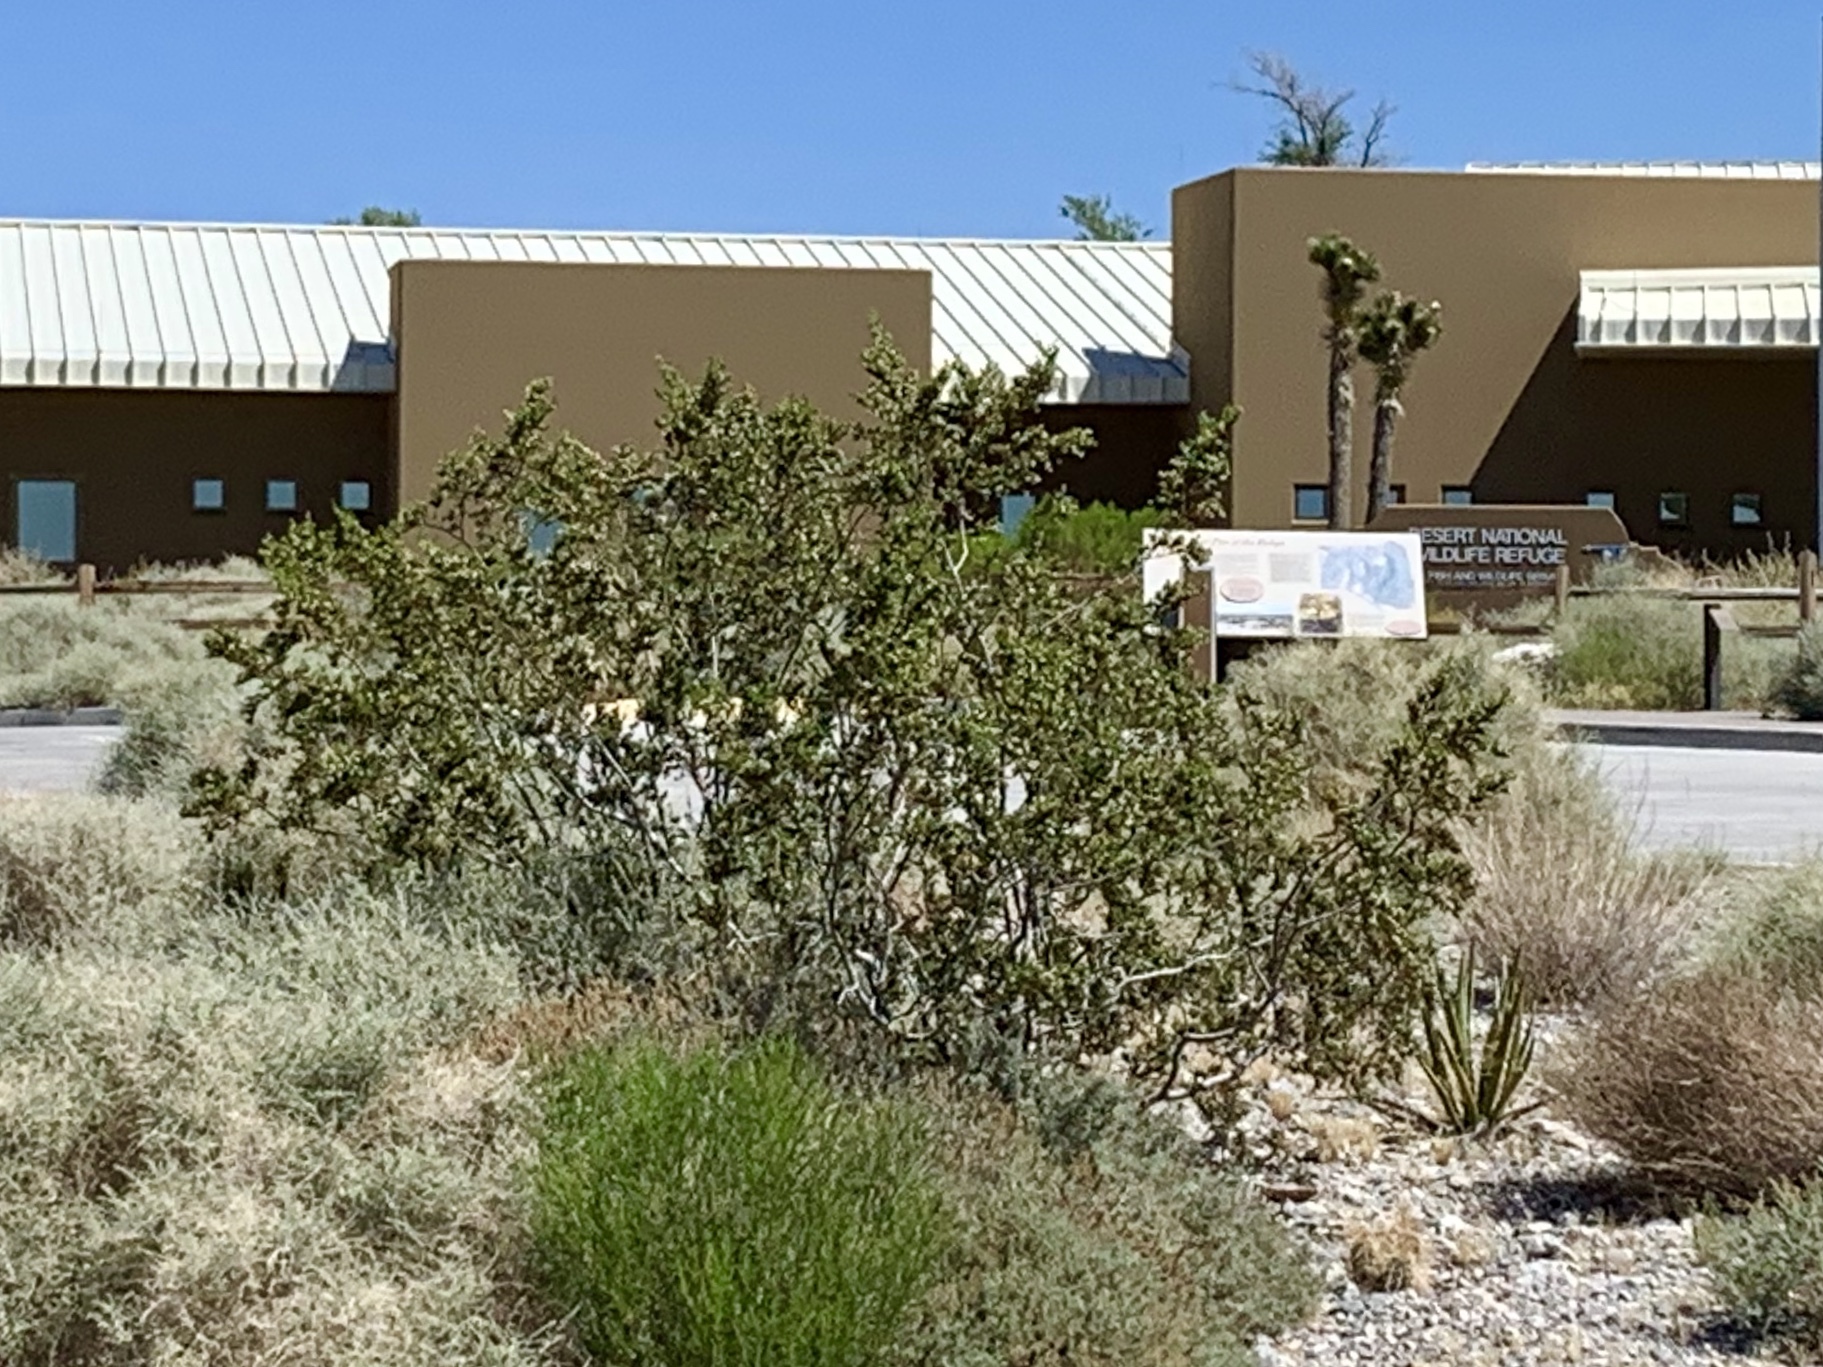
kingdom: Plantae
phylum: Tracheophyta
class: Magnoliopsida
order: Zygophyllales
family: Zygophyllaceae
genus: Larrea
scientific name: Larrea tridentata
